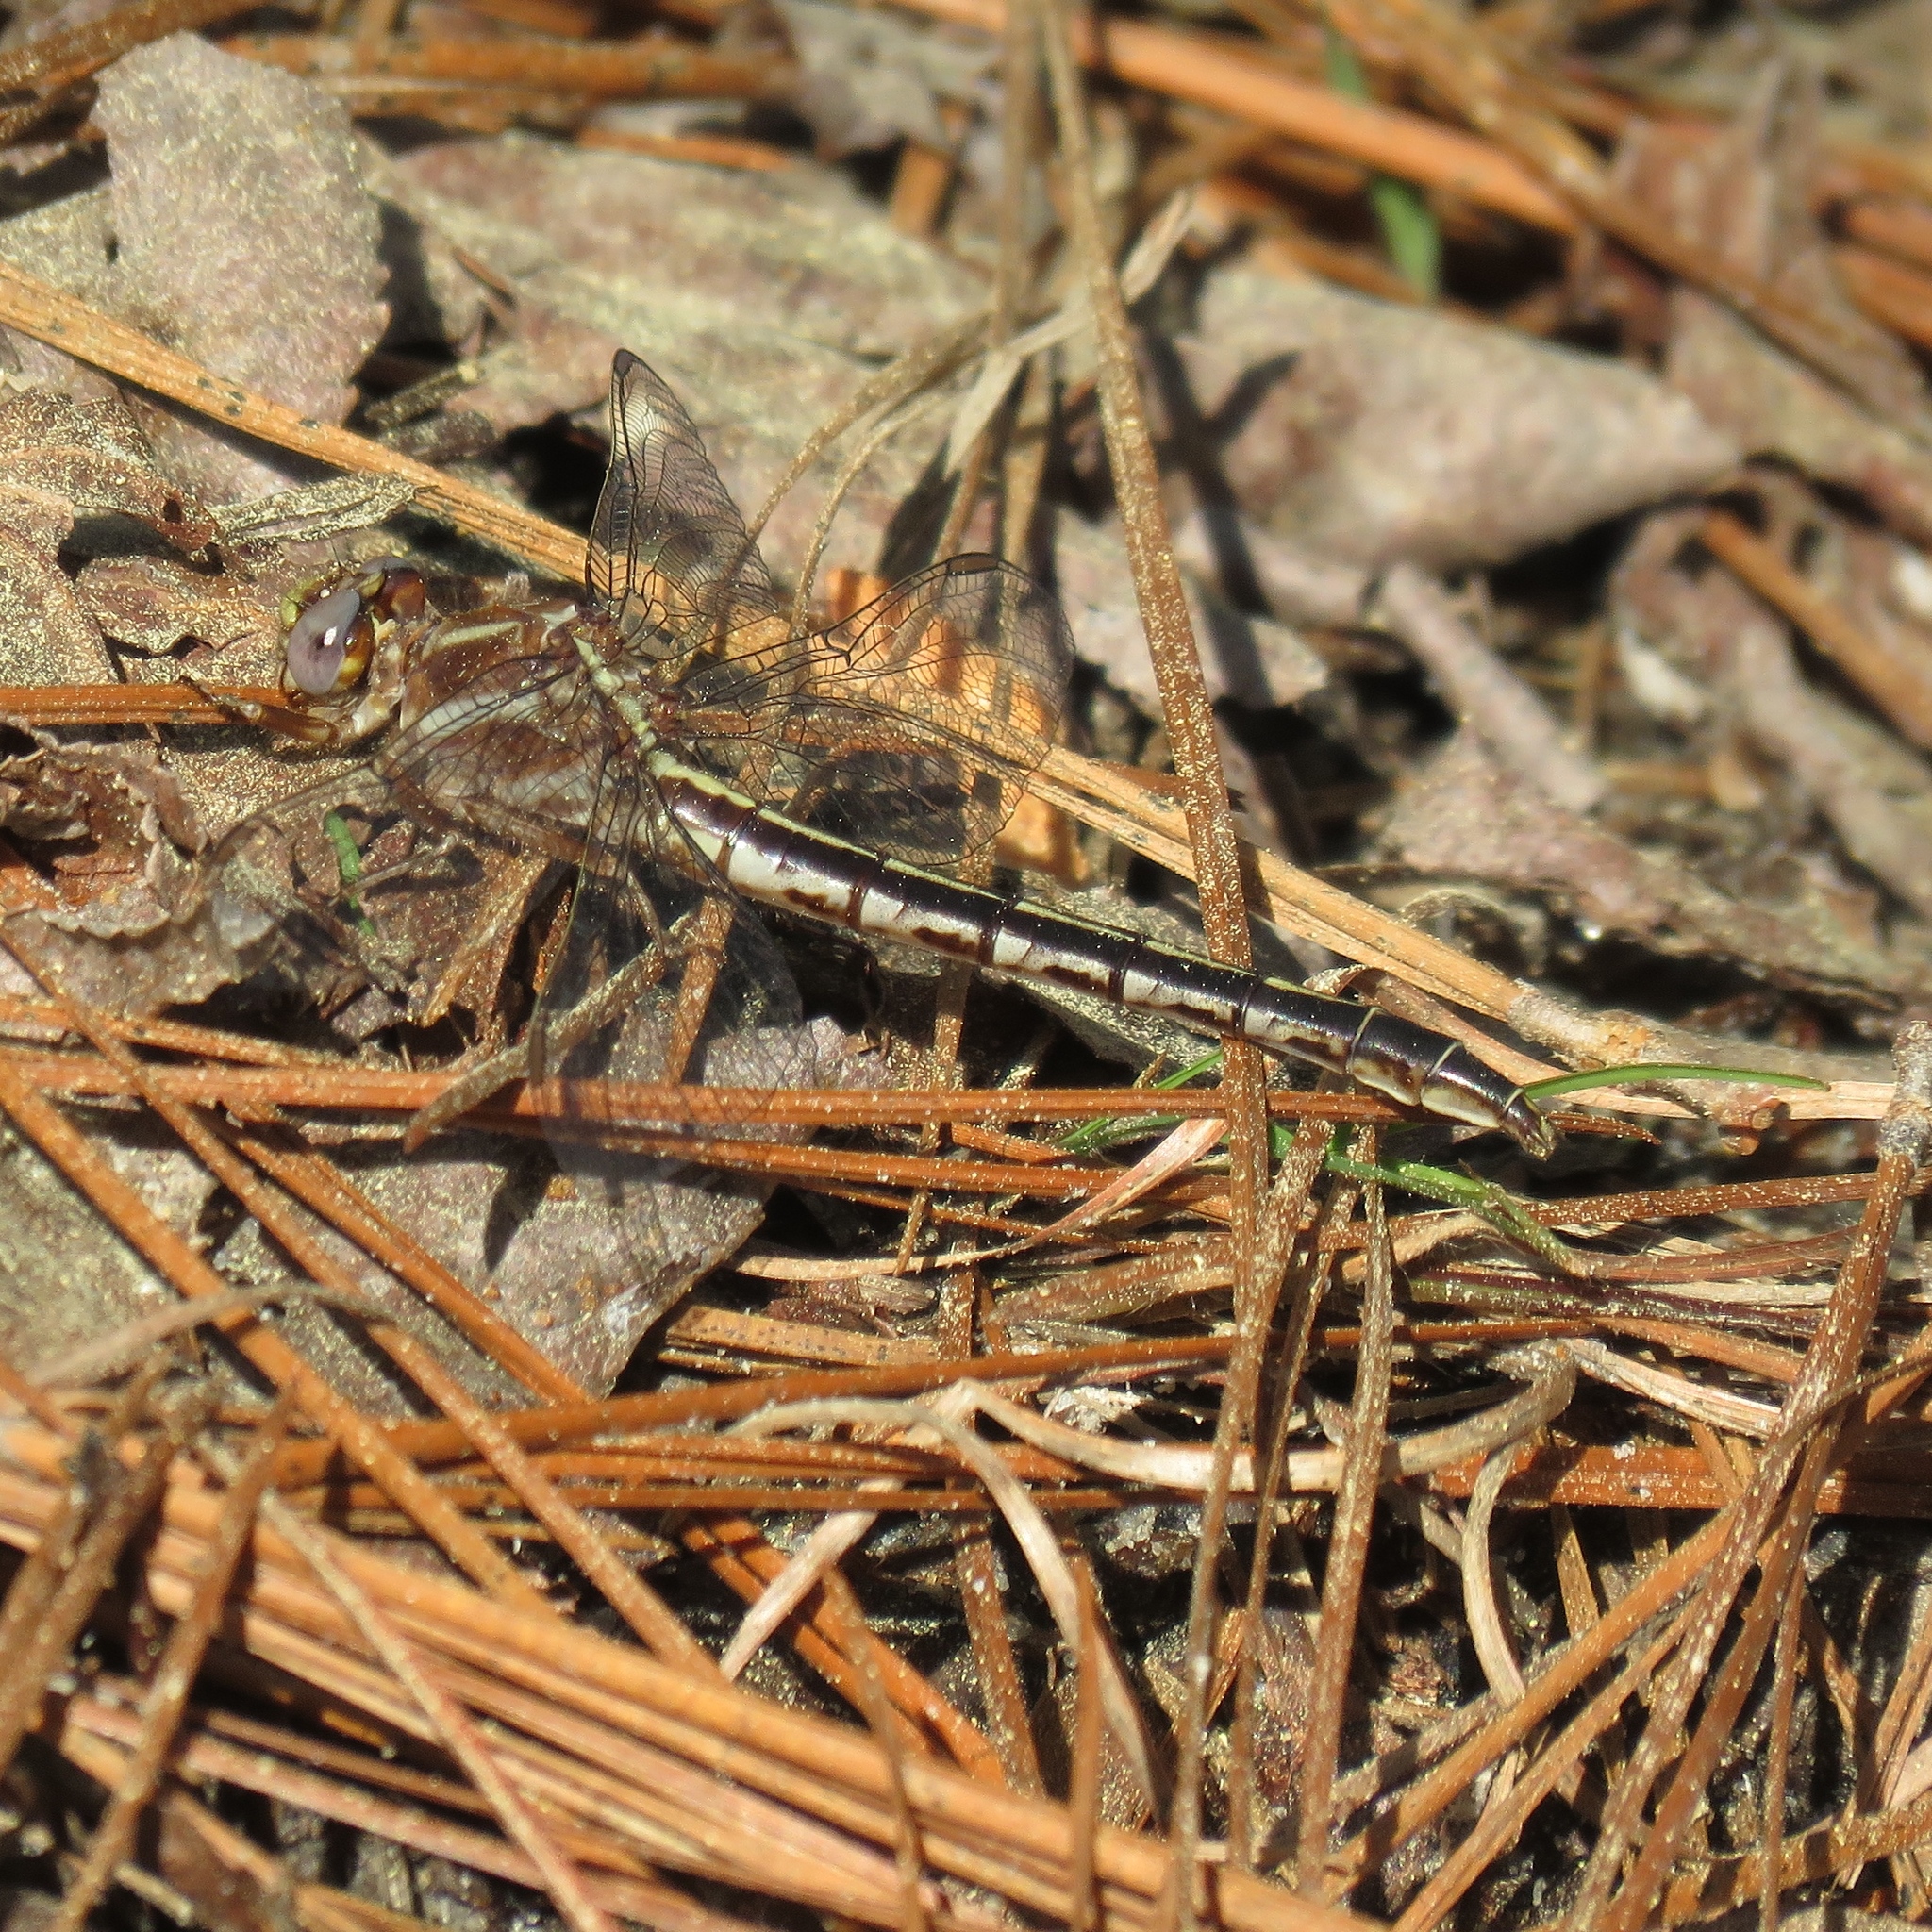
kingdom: Animalia
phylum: Arthropoda
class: Insecta
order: Odonata
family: Gomphidae
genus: Phanogomphus
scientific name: Phanogomphus lividus
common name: Ashy clubtail
